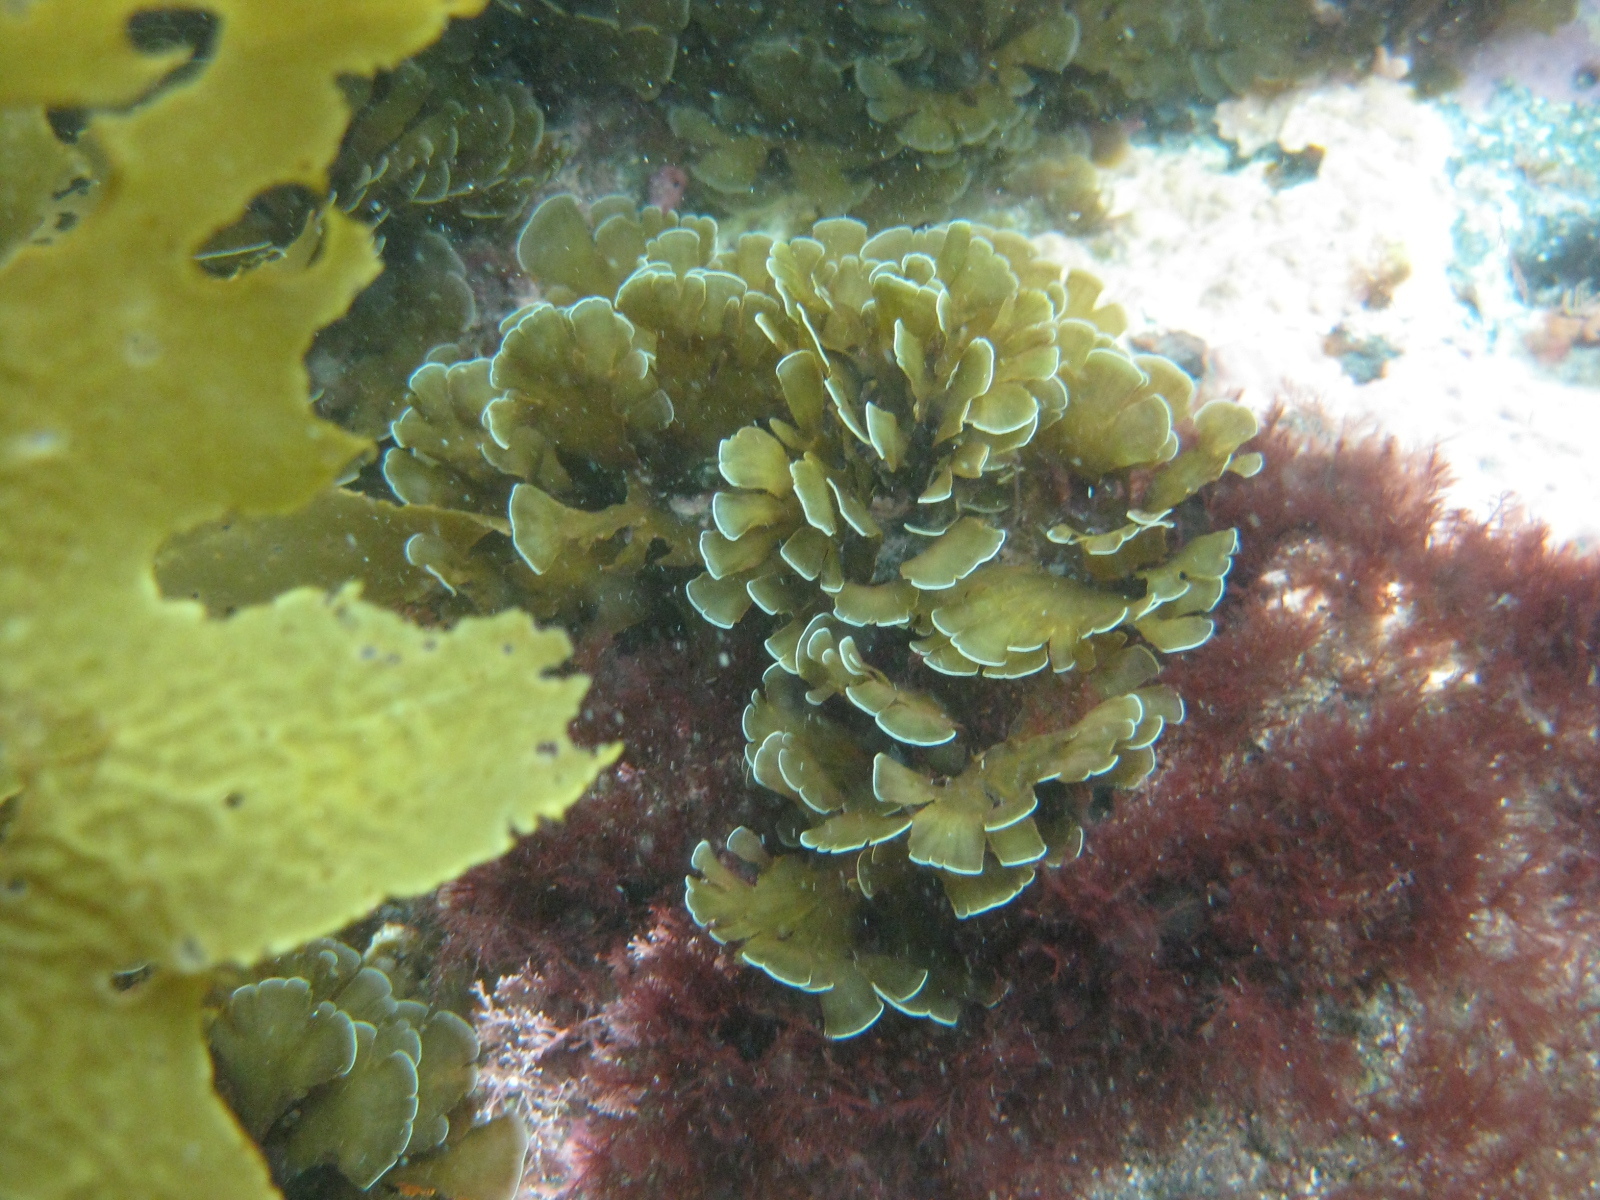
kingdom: Chromista
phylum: Ochrophyta
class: Phaeophyceae
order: Dictyotales
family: Dictyotaceae
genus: Zonaria
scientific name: Zonaria aureomarginata
